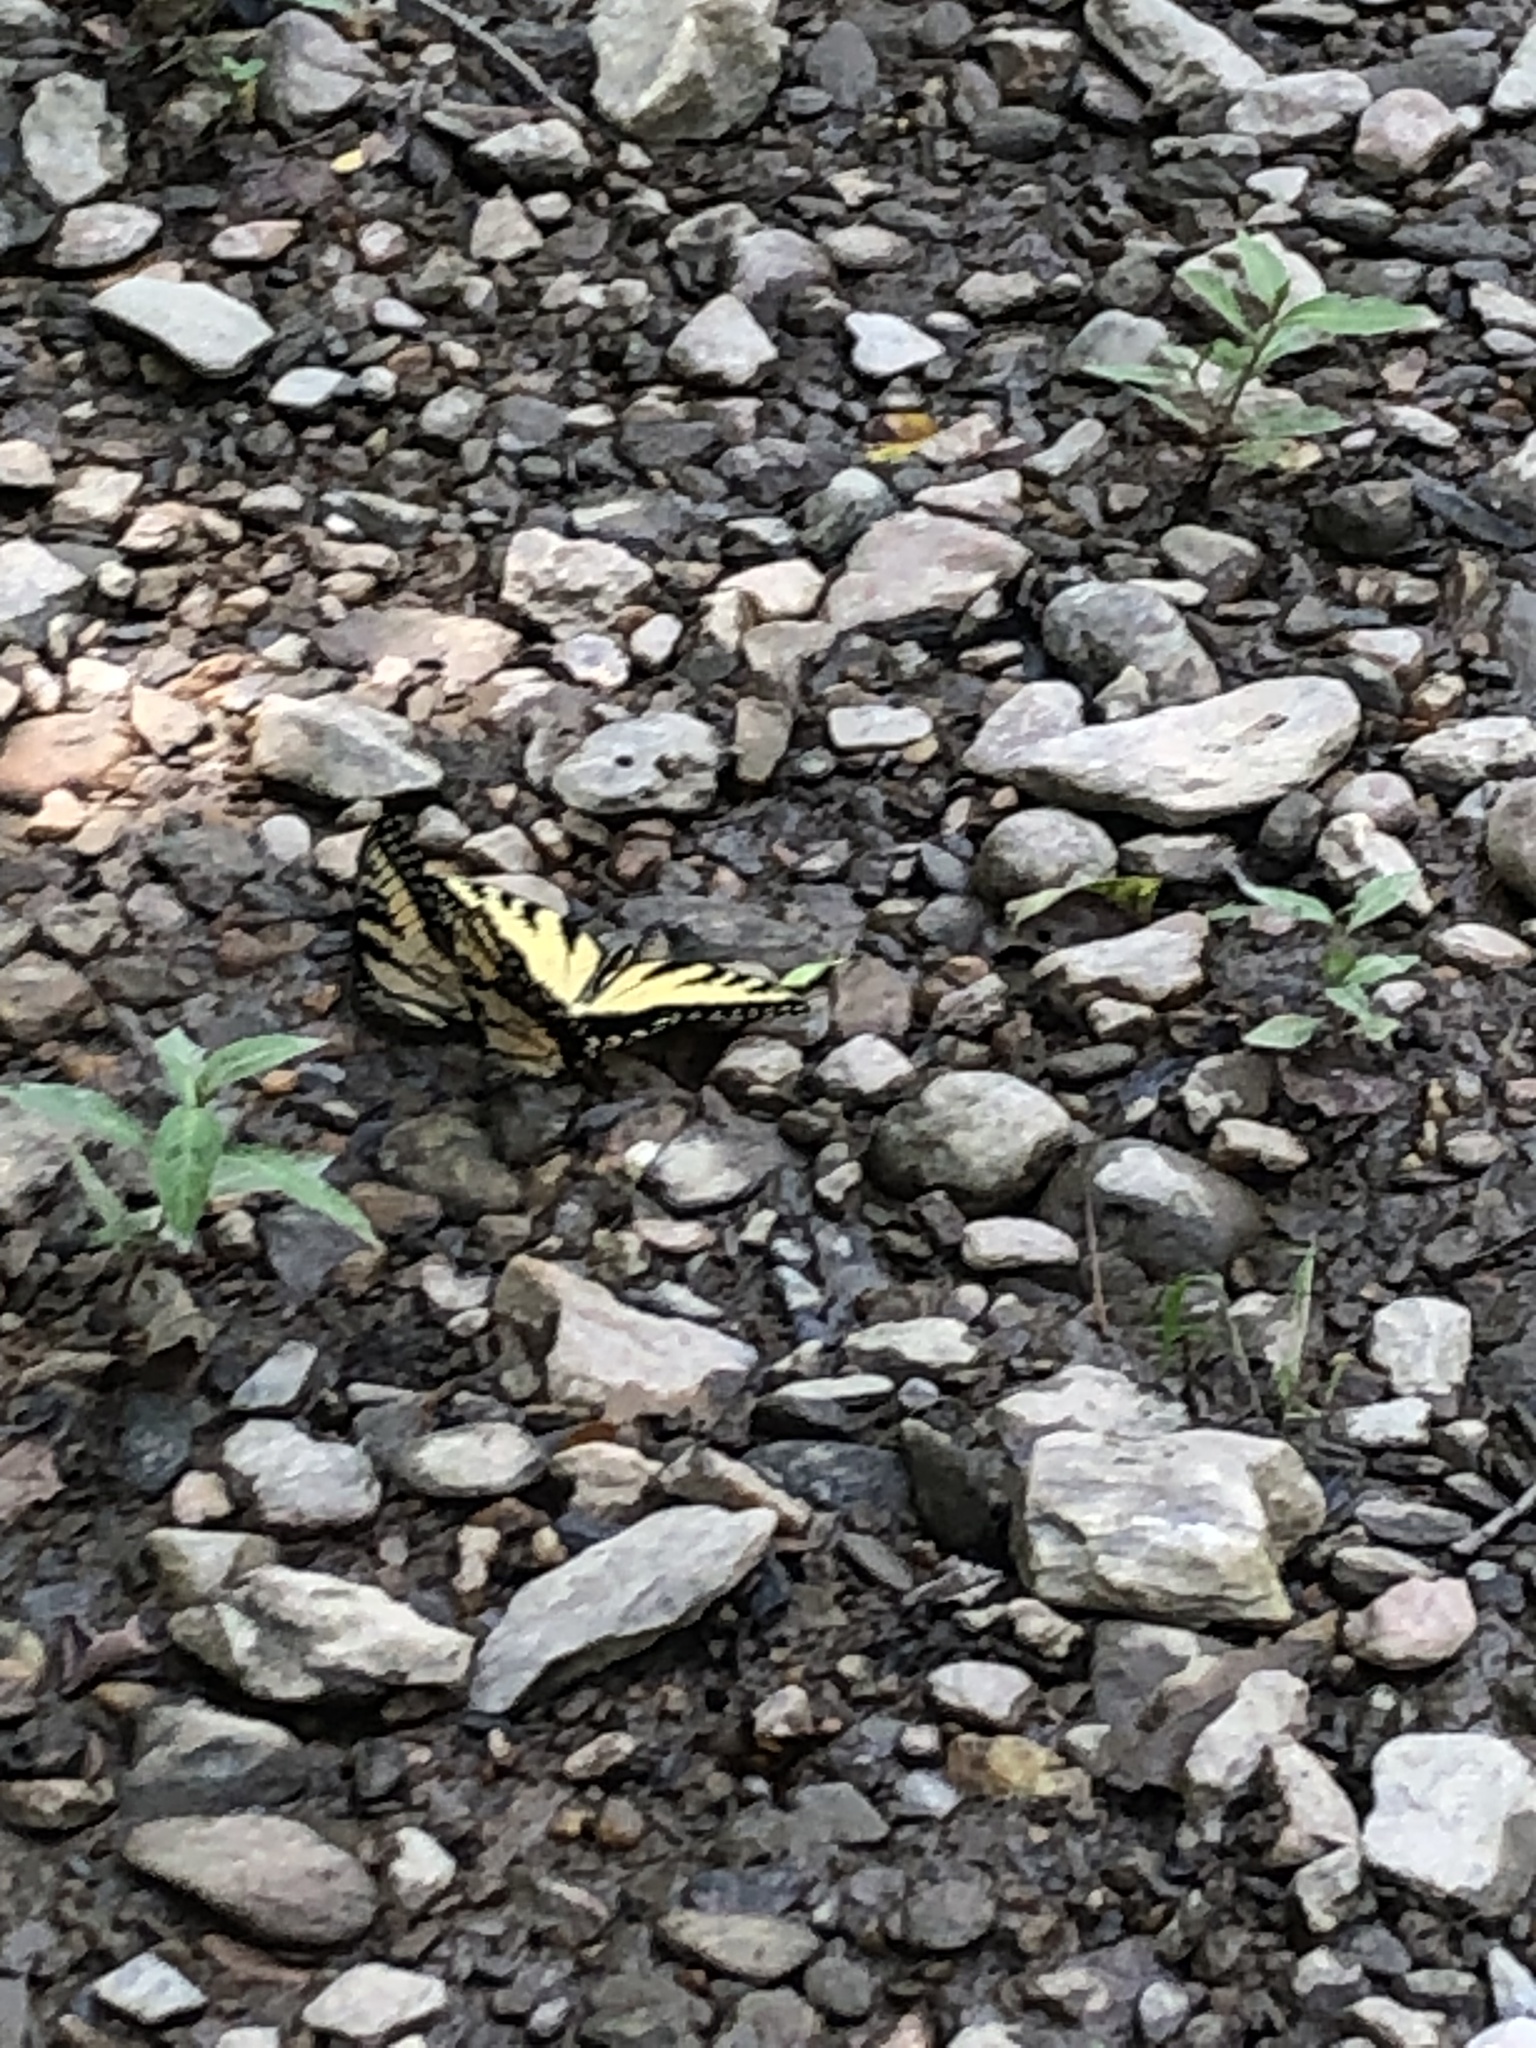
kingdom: Animalia
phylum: Arthropoda
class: Insecta
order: Lepidoptera
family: Papilionidae
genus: Papilio
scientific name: Papilio glaucus
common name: Tiger swallowtail
